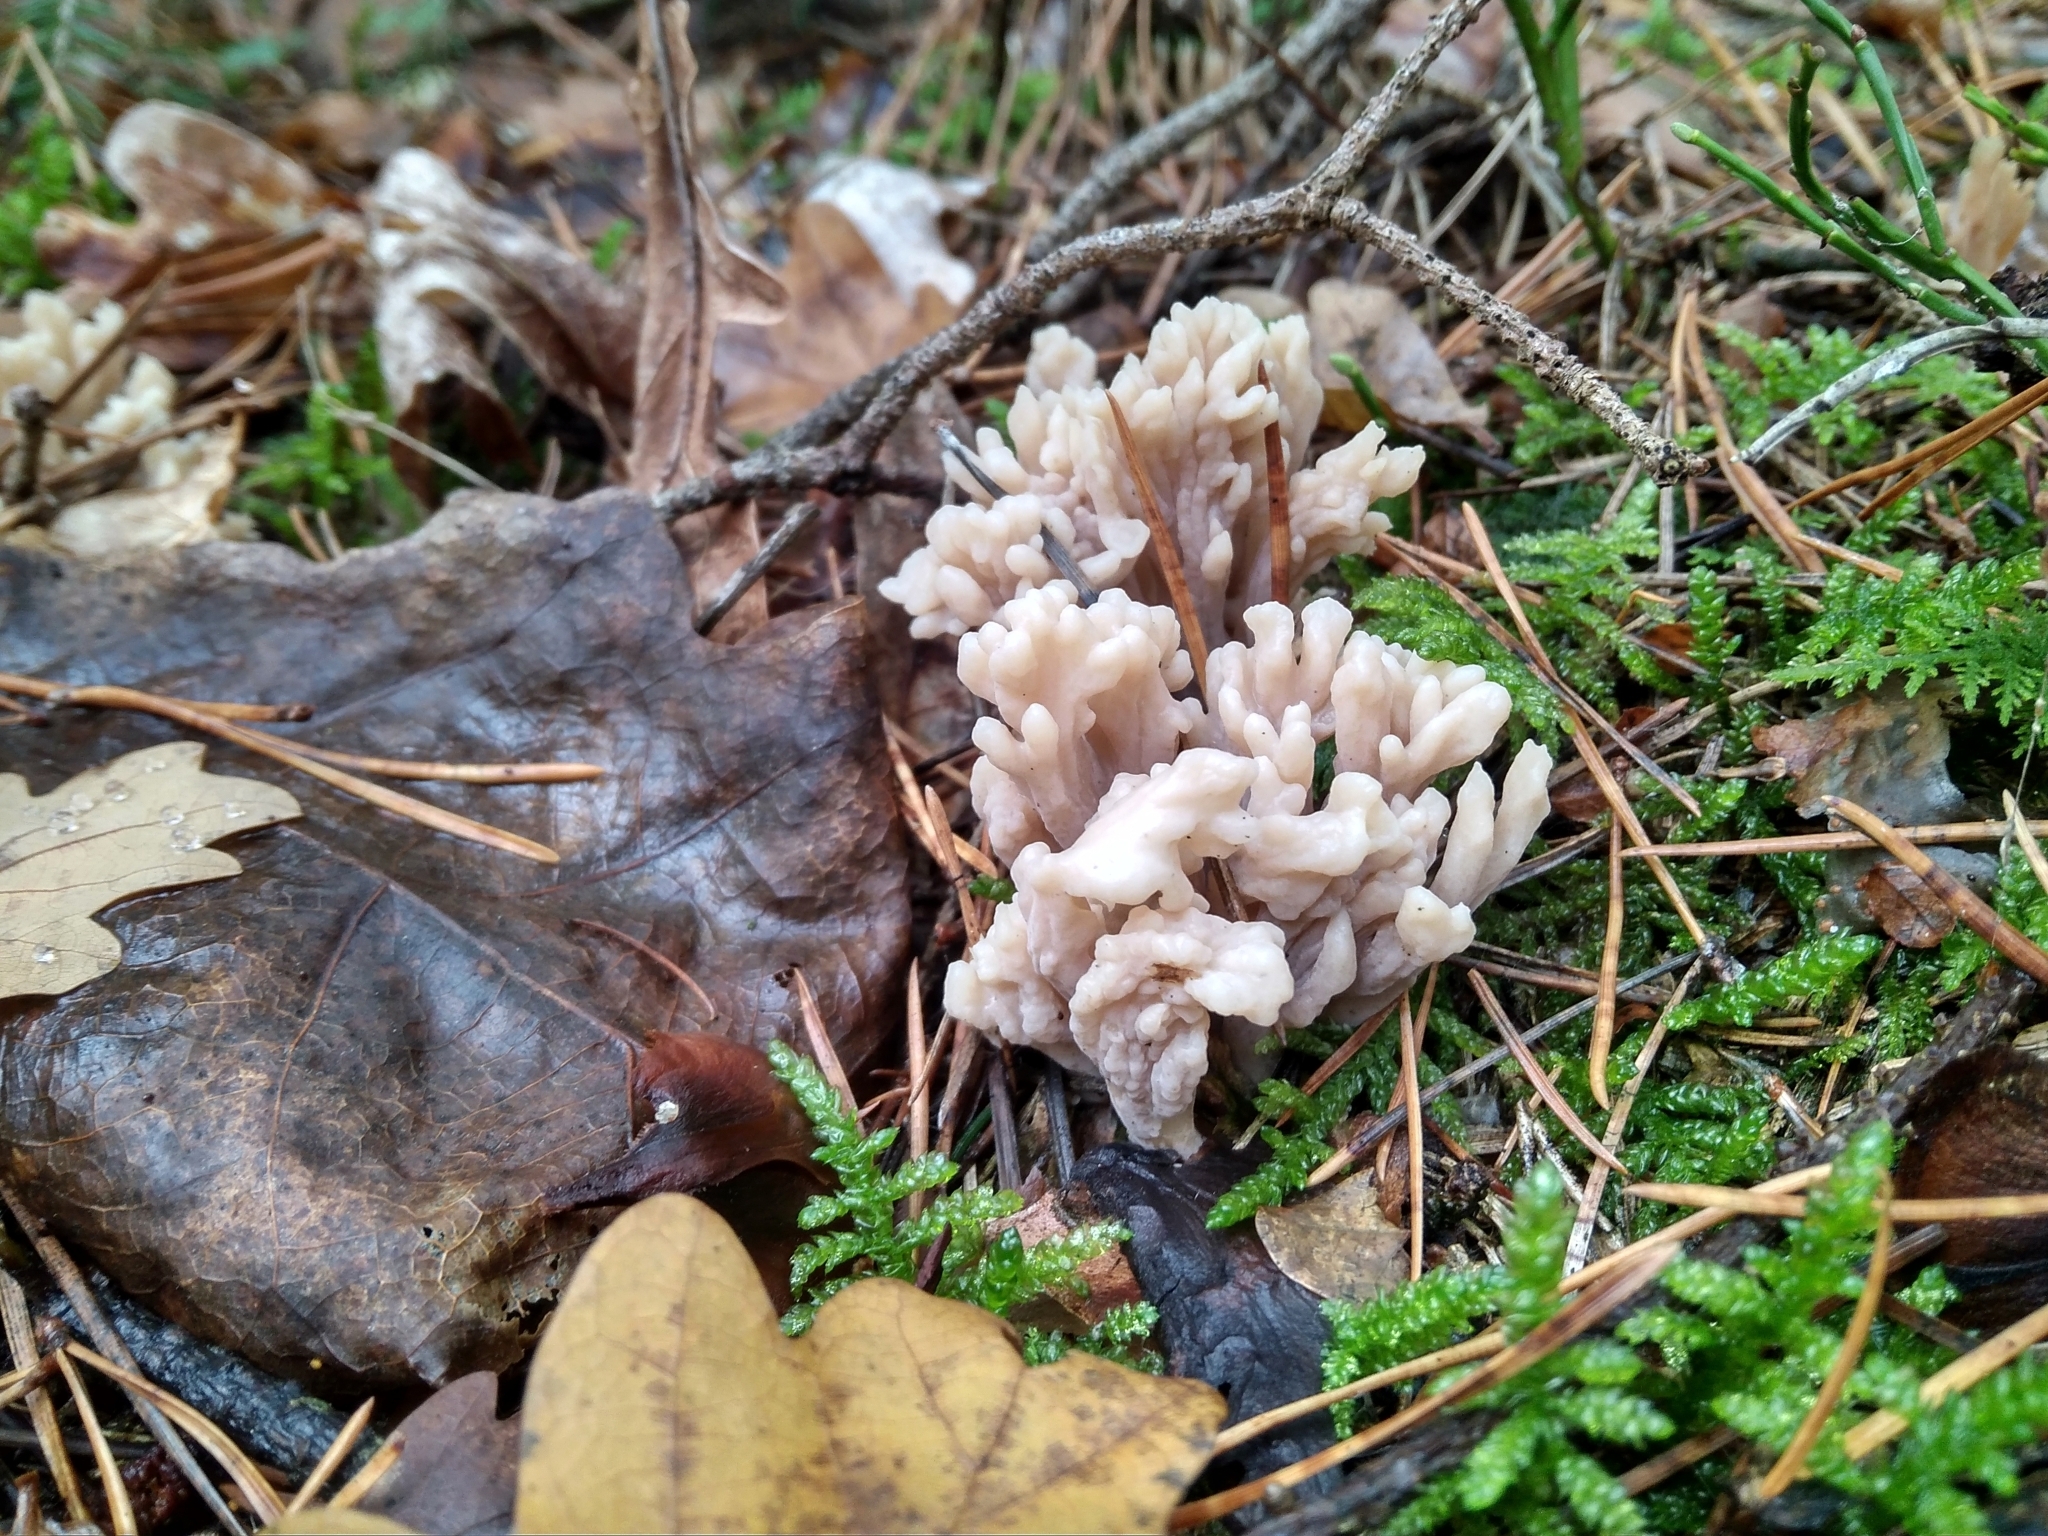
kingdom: Fungi
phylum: Basidiomycota
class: Agaricomycetes
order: Cantharellales
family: Hydnaceae
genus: Clavulina
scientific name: Clavulina rugosa
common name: Wrinkled club
